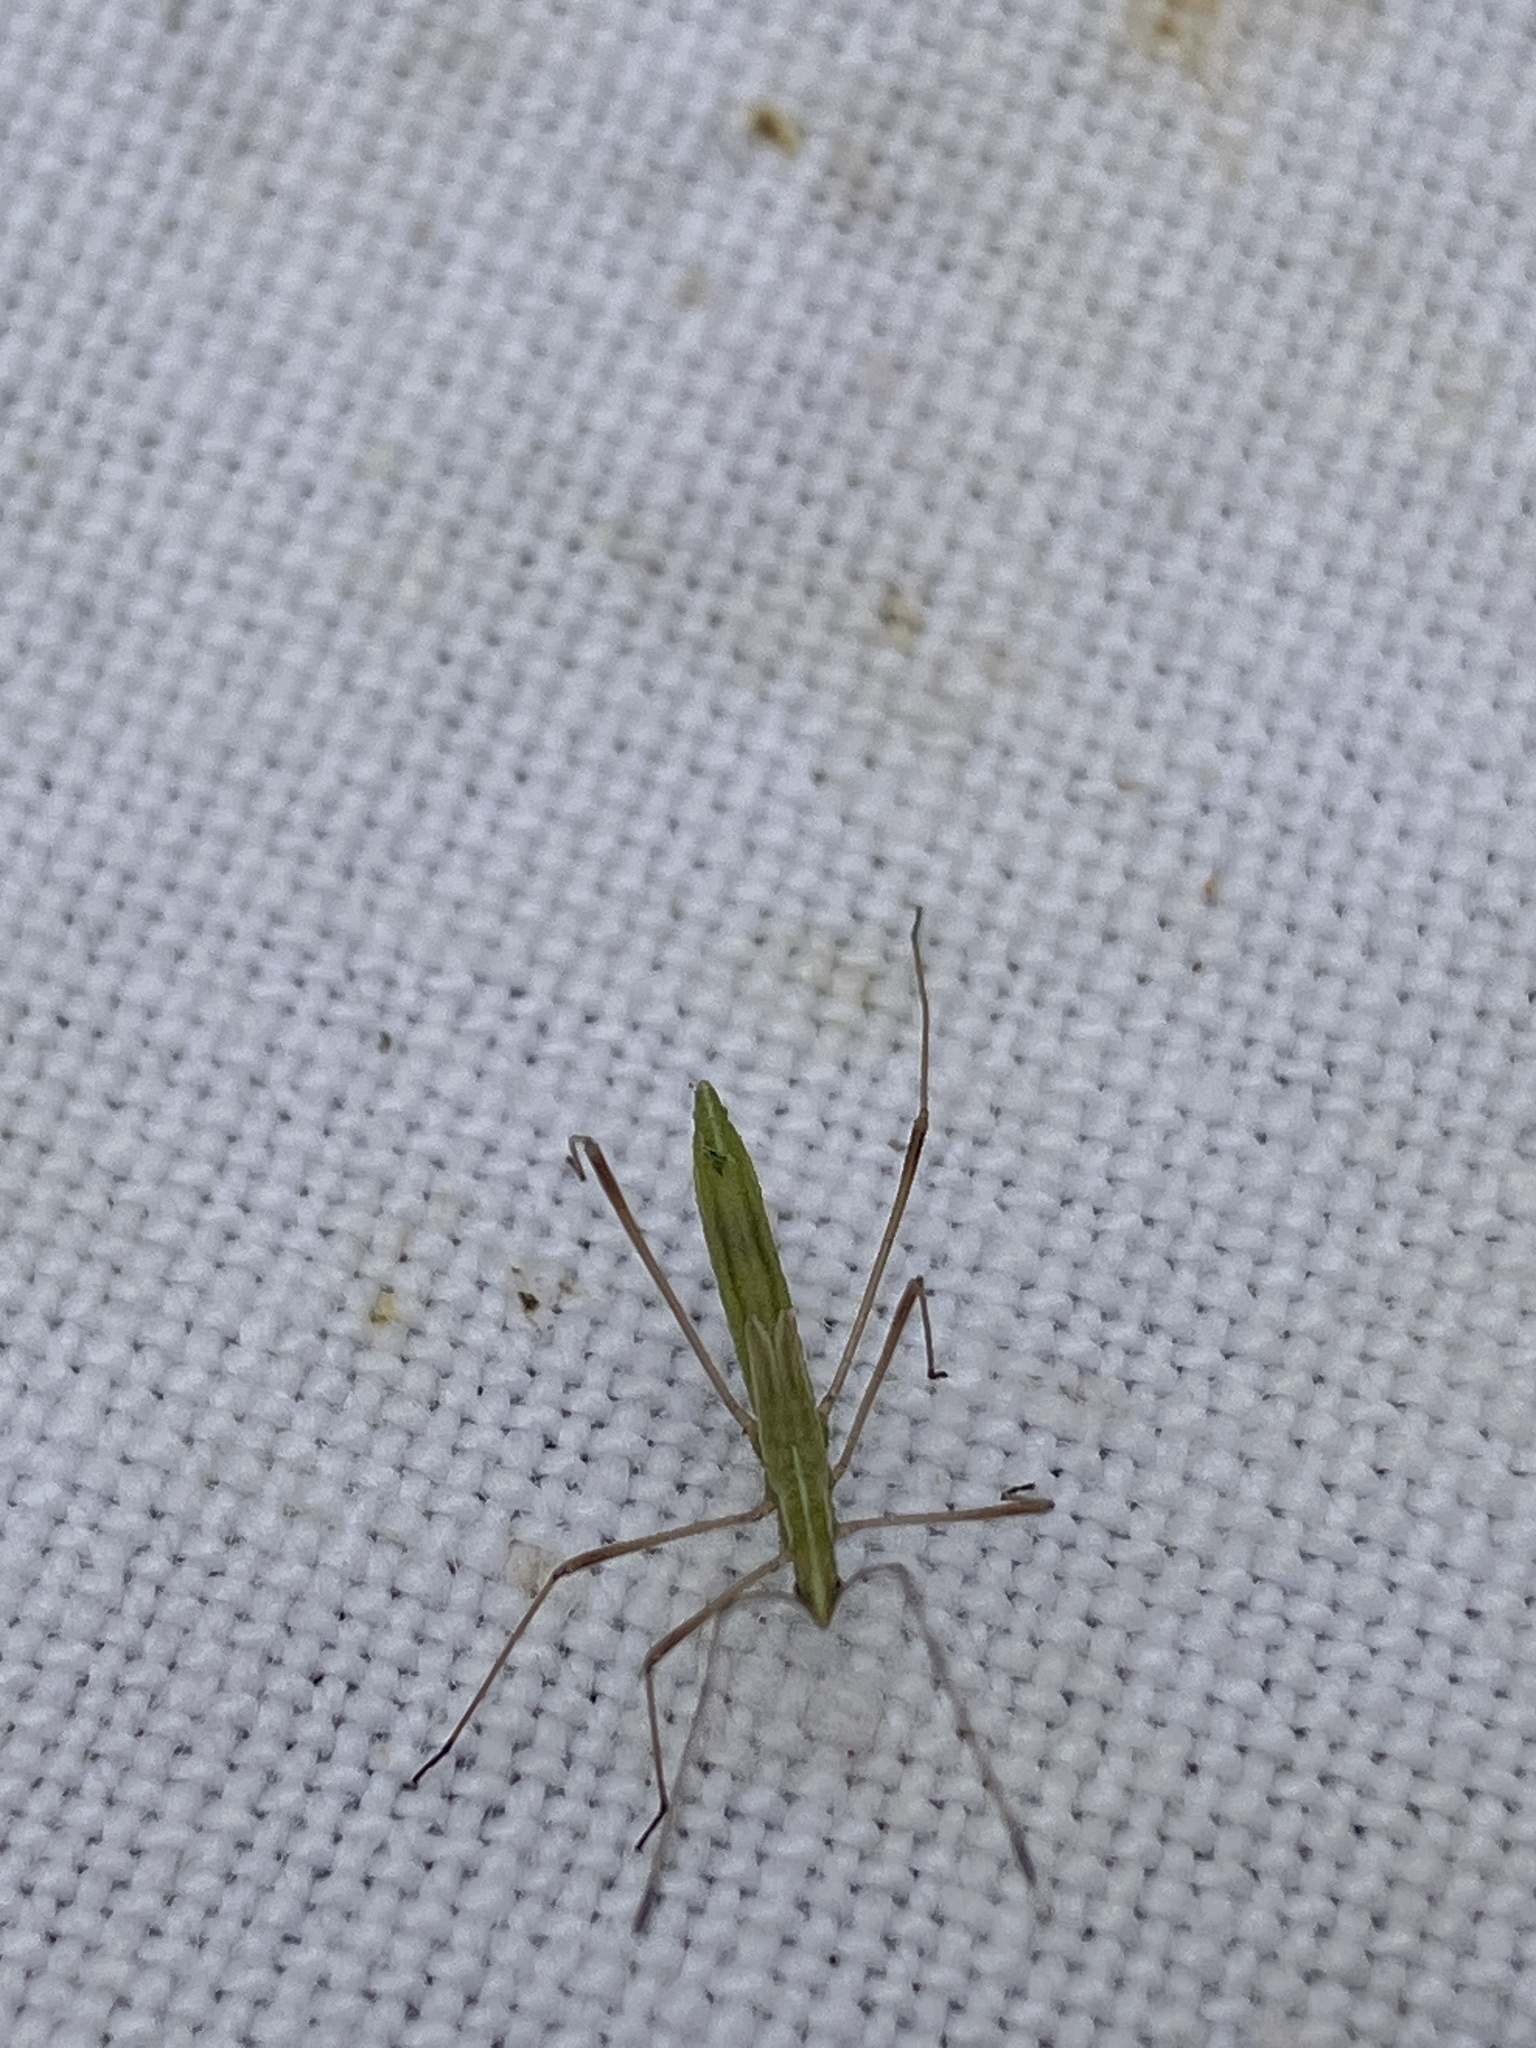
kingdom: Animalia
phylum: Arthropoda
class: Insecta
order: Hemiptera
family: Berytidae
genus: Neides
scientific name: Neides tipularius
